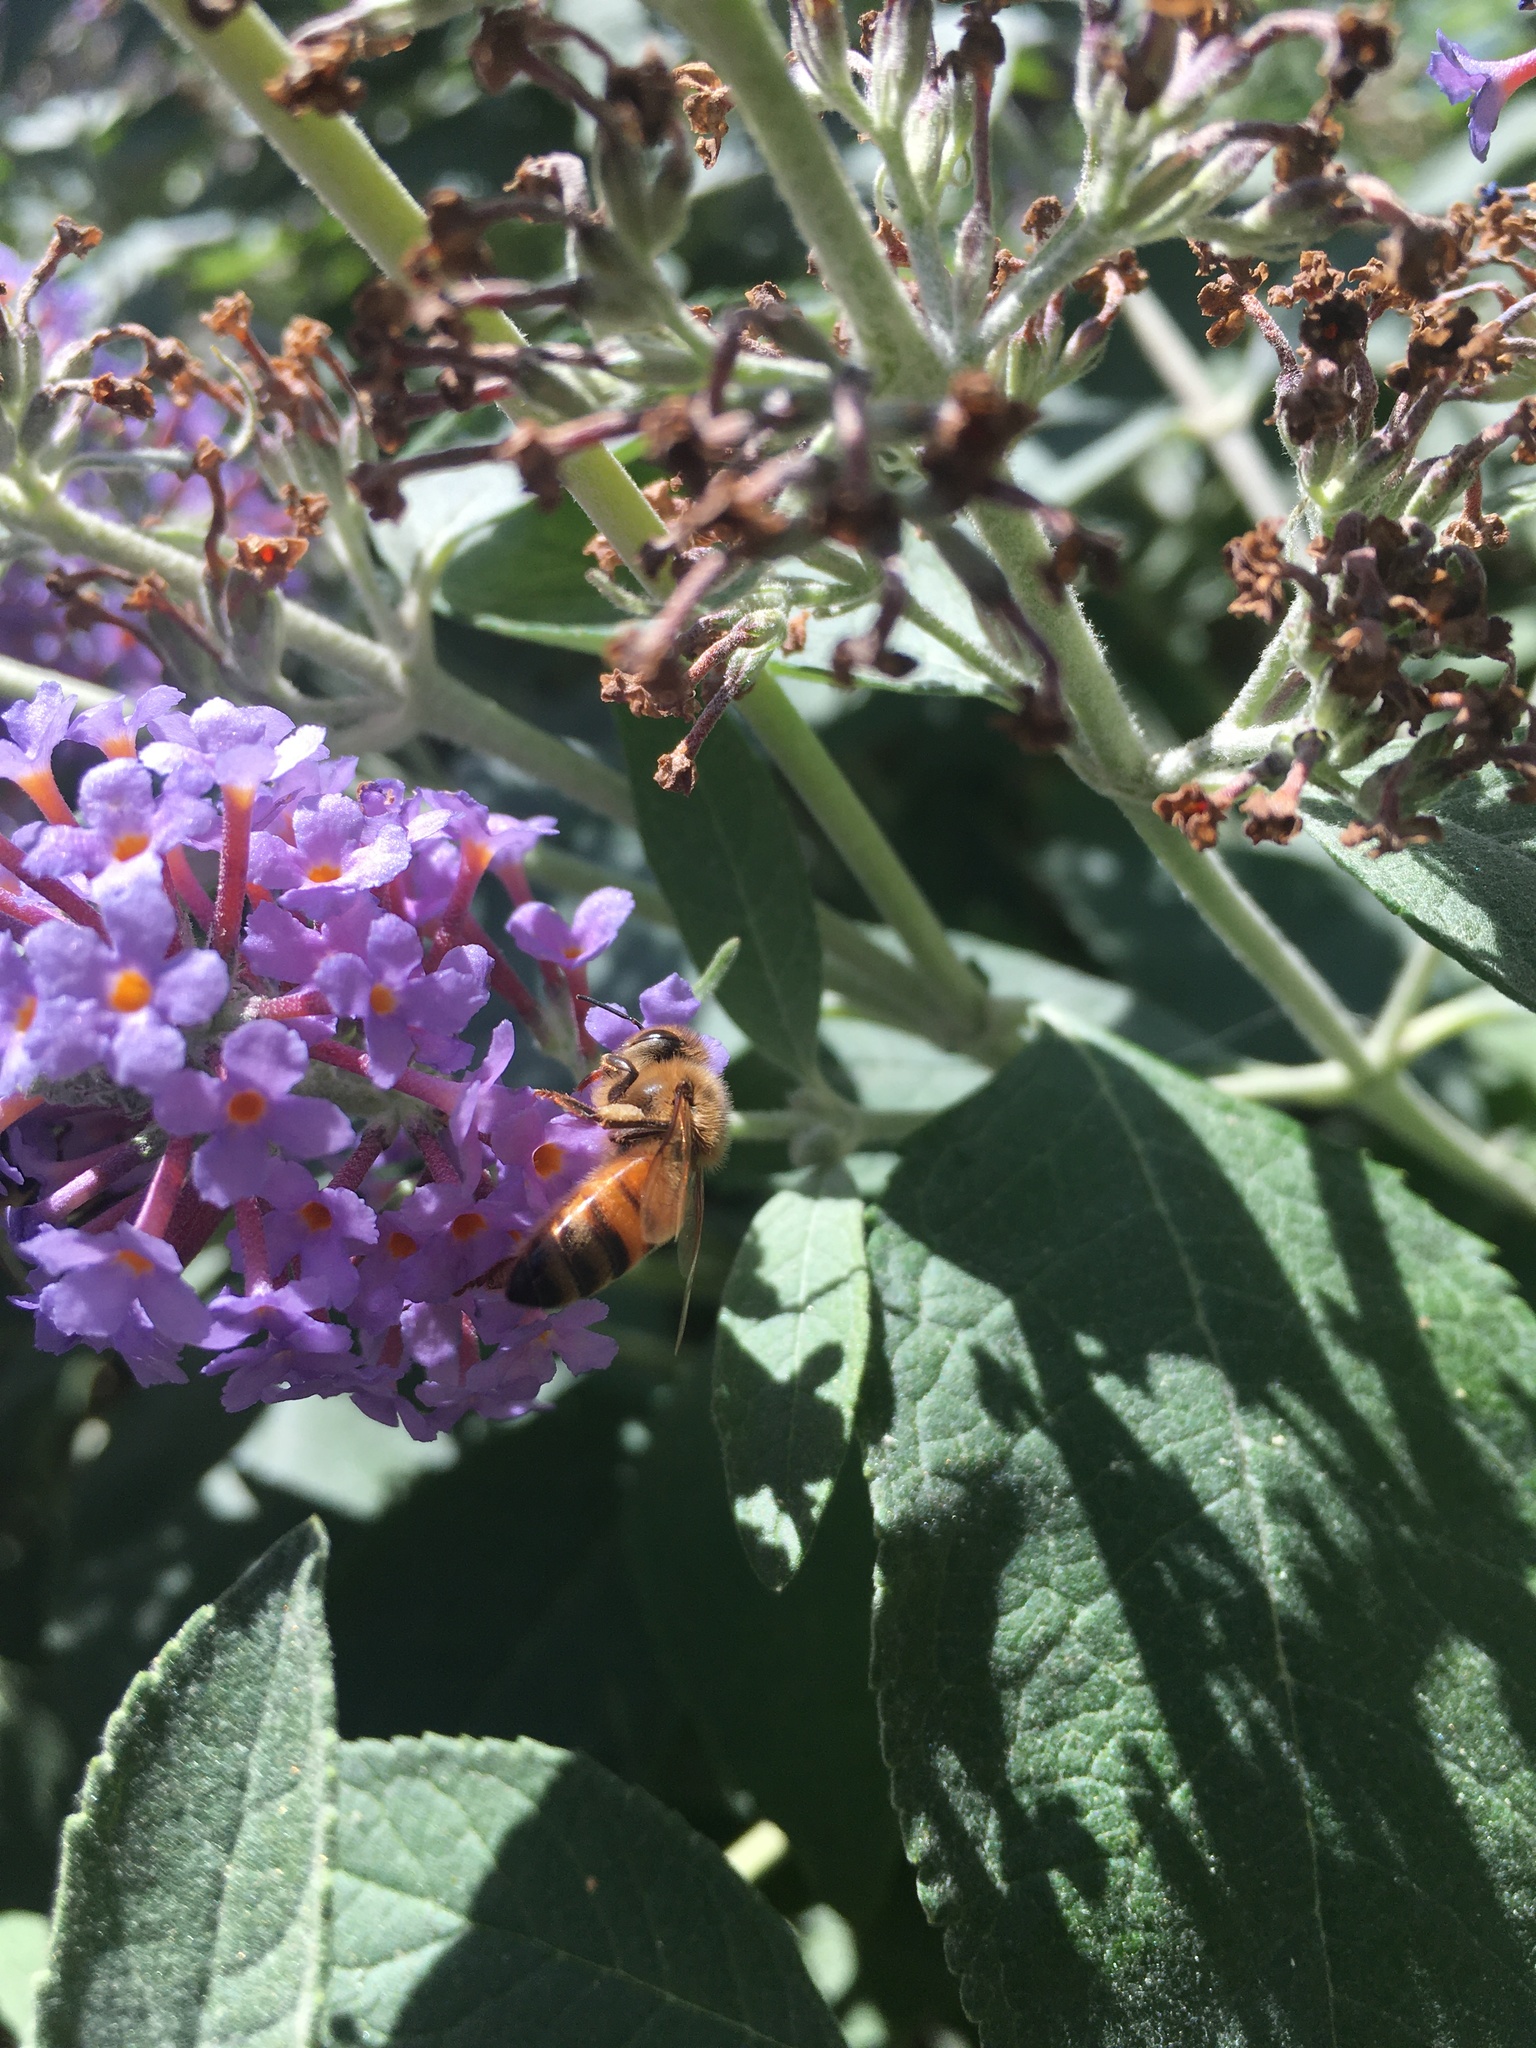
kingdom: Animalia
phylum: Arthropoda
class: Insecta
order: Hymenoptera
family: Apidae
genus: Apis
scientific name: Apis mellifera
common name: Honey bee
